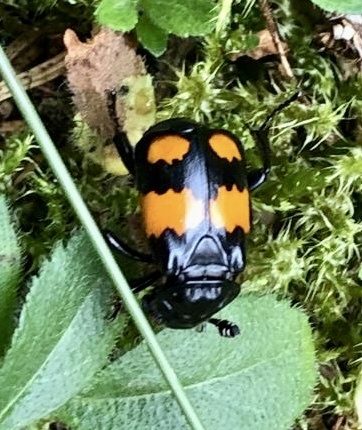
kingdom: Animalia
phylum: Arthropoda
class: Insecta
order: Coleoptera
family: Staphylinidae
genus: Nicrophorus
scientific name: Nicrophorus vespilloides
